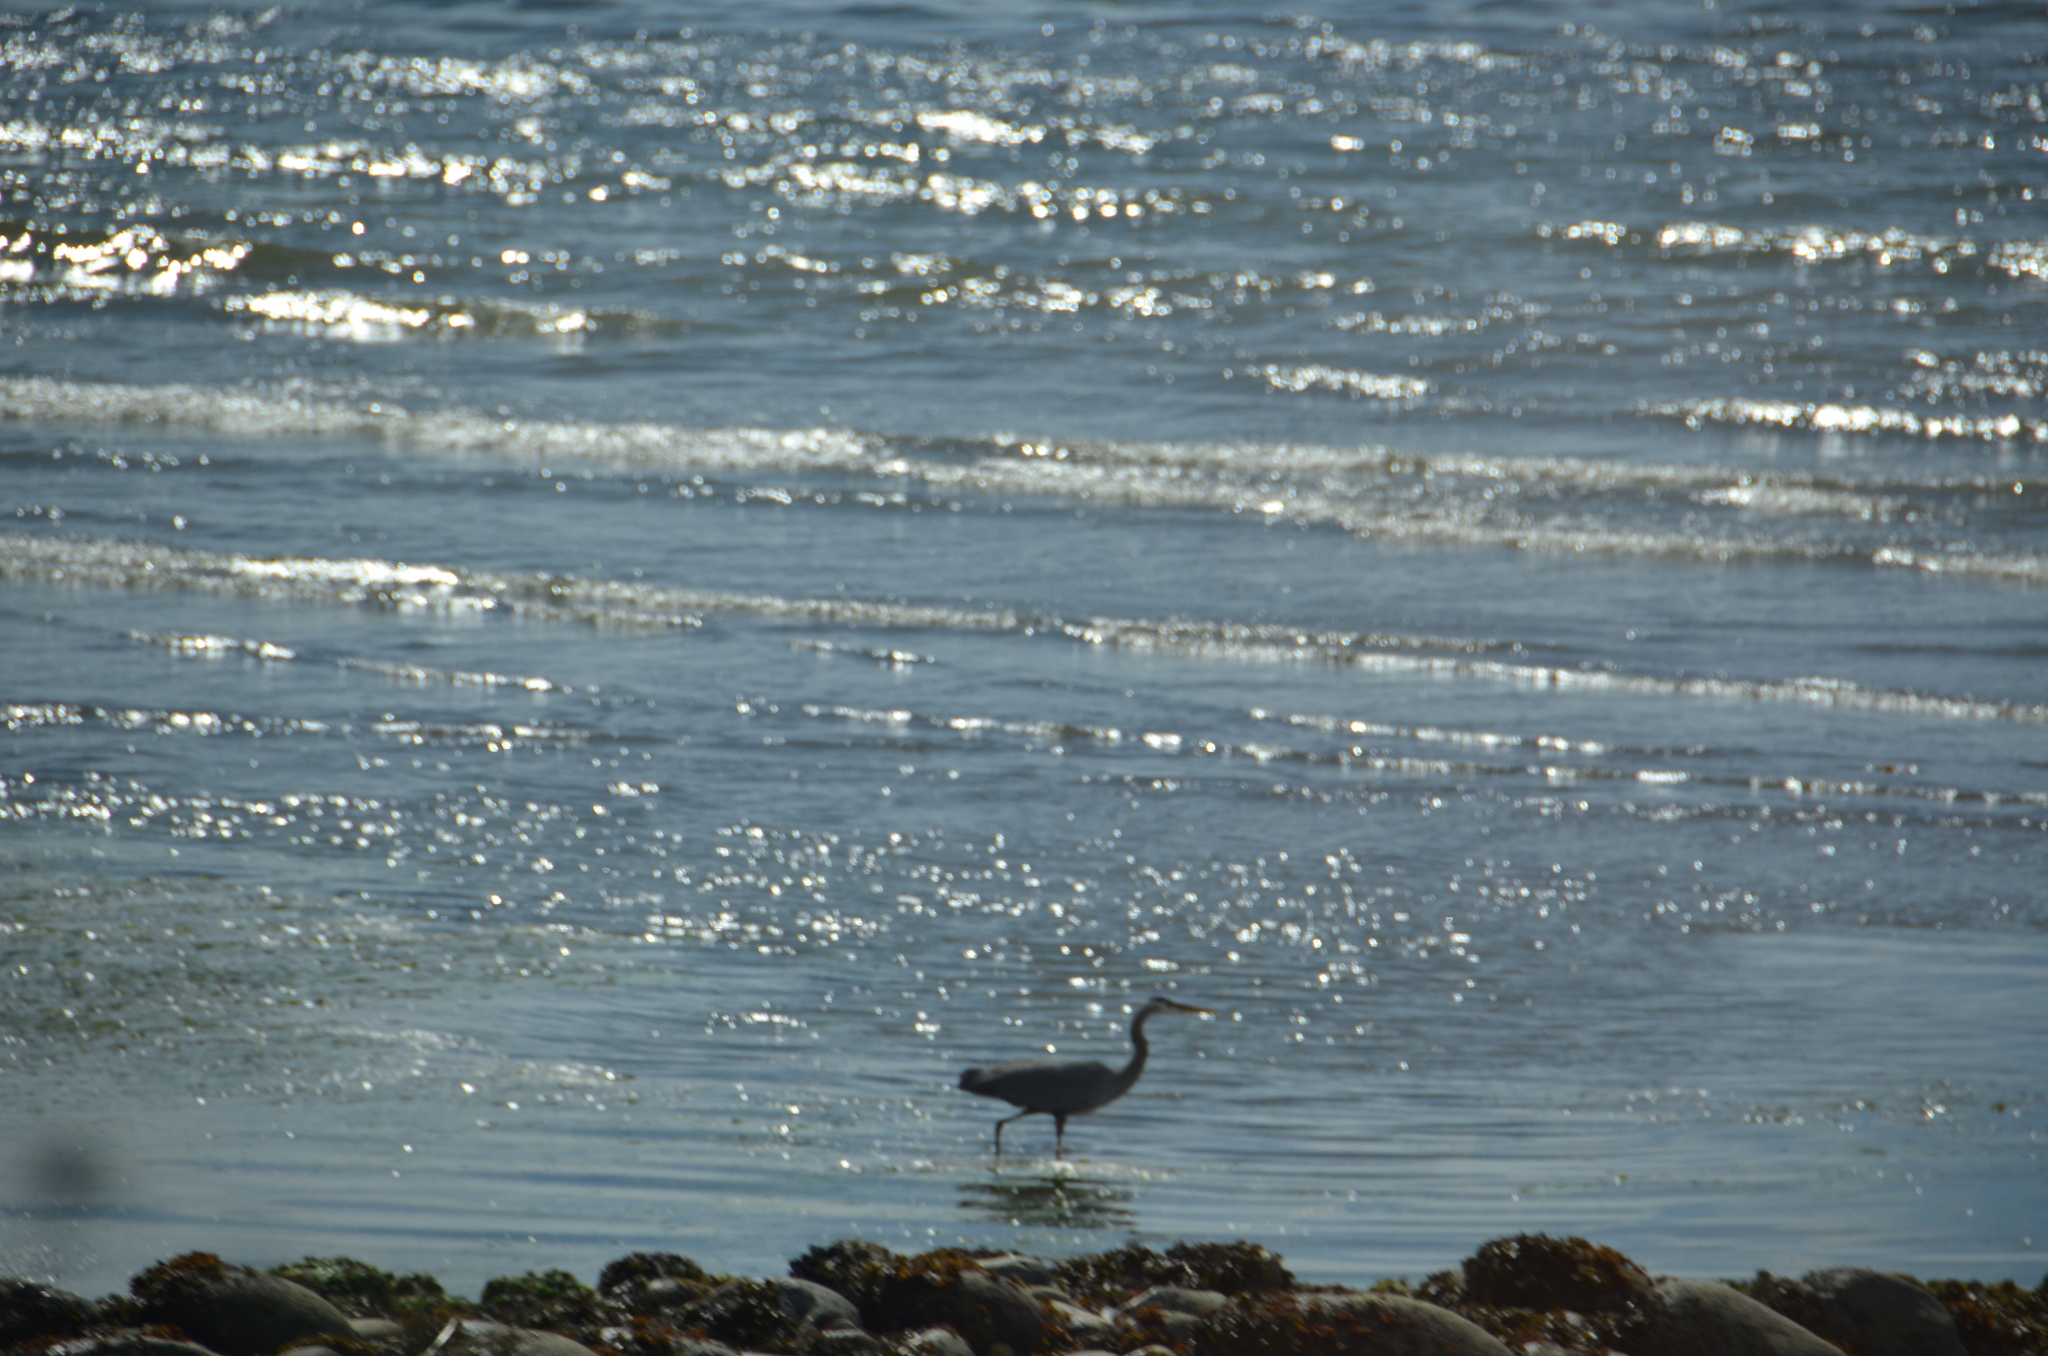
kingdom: Animalia
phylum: Chordata
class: Aves
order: Pelecaniformes
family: Ardeidae
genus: Ardea
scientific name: Ardea herodias
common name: Great blue heron
